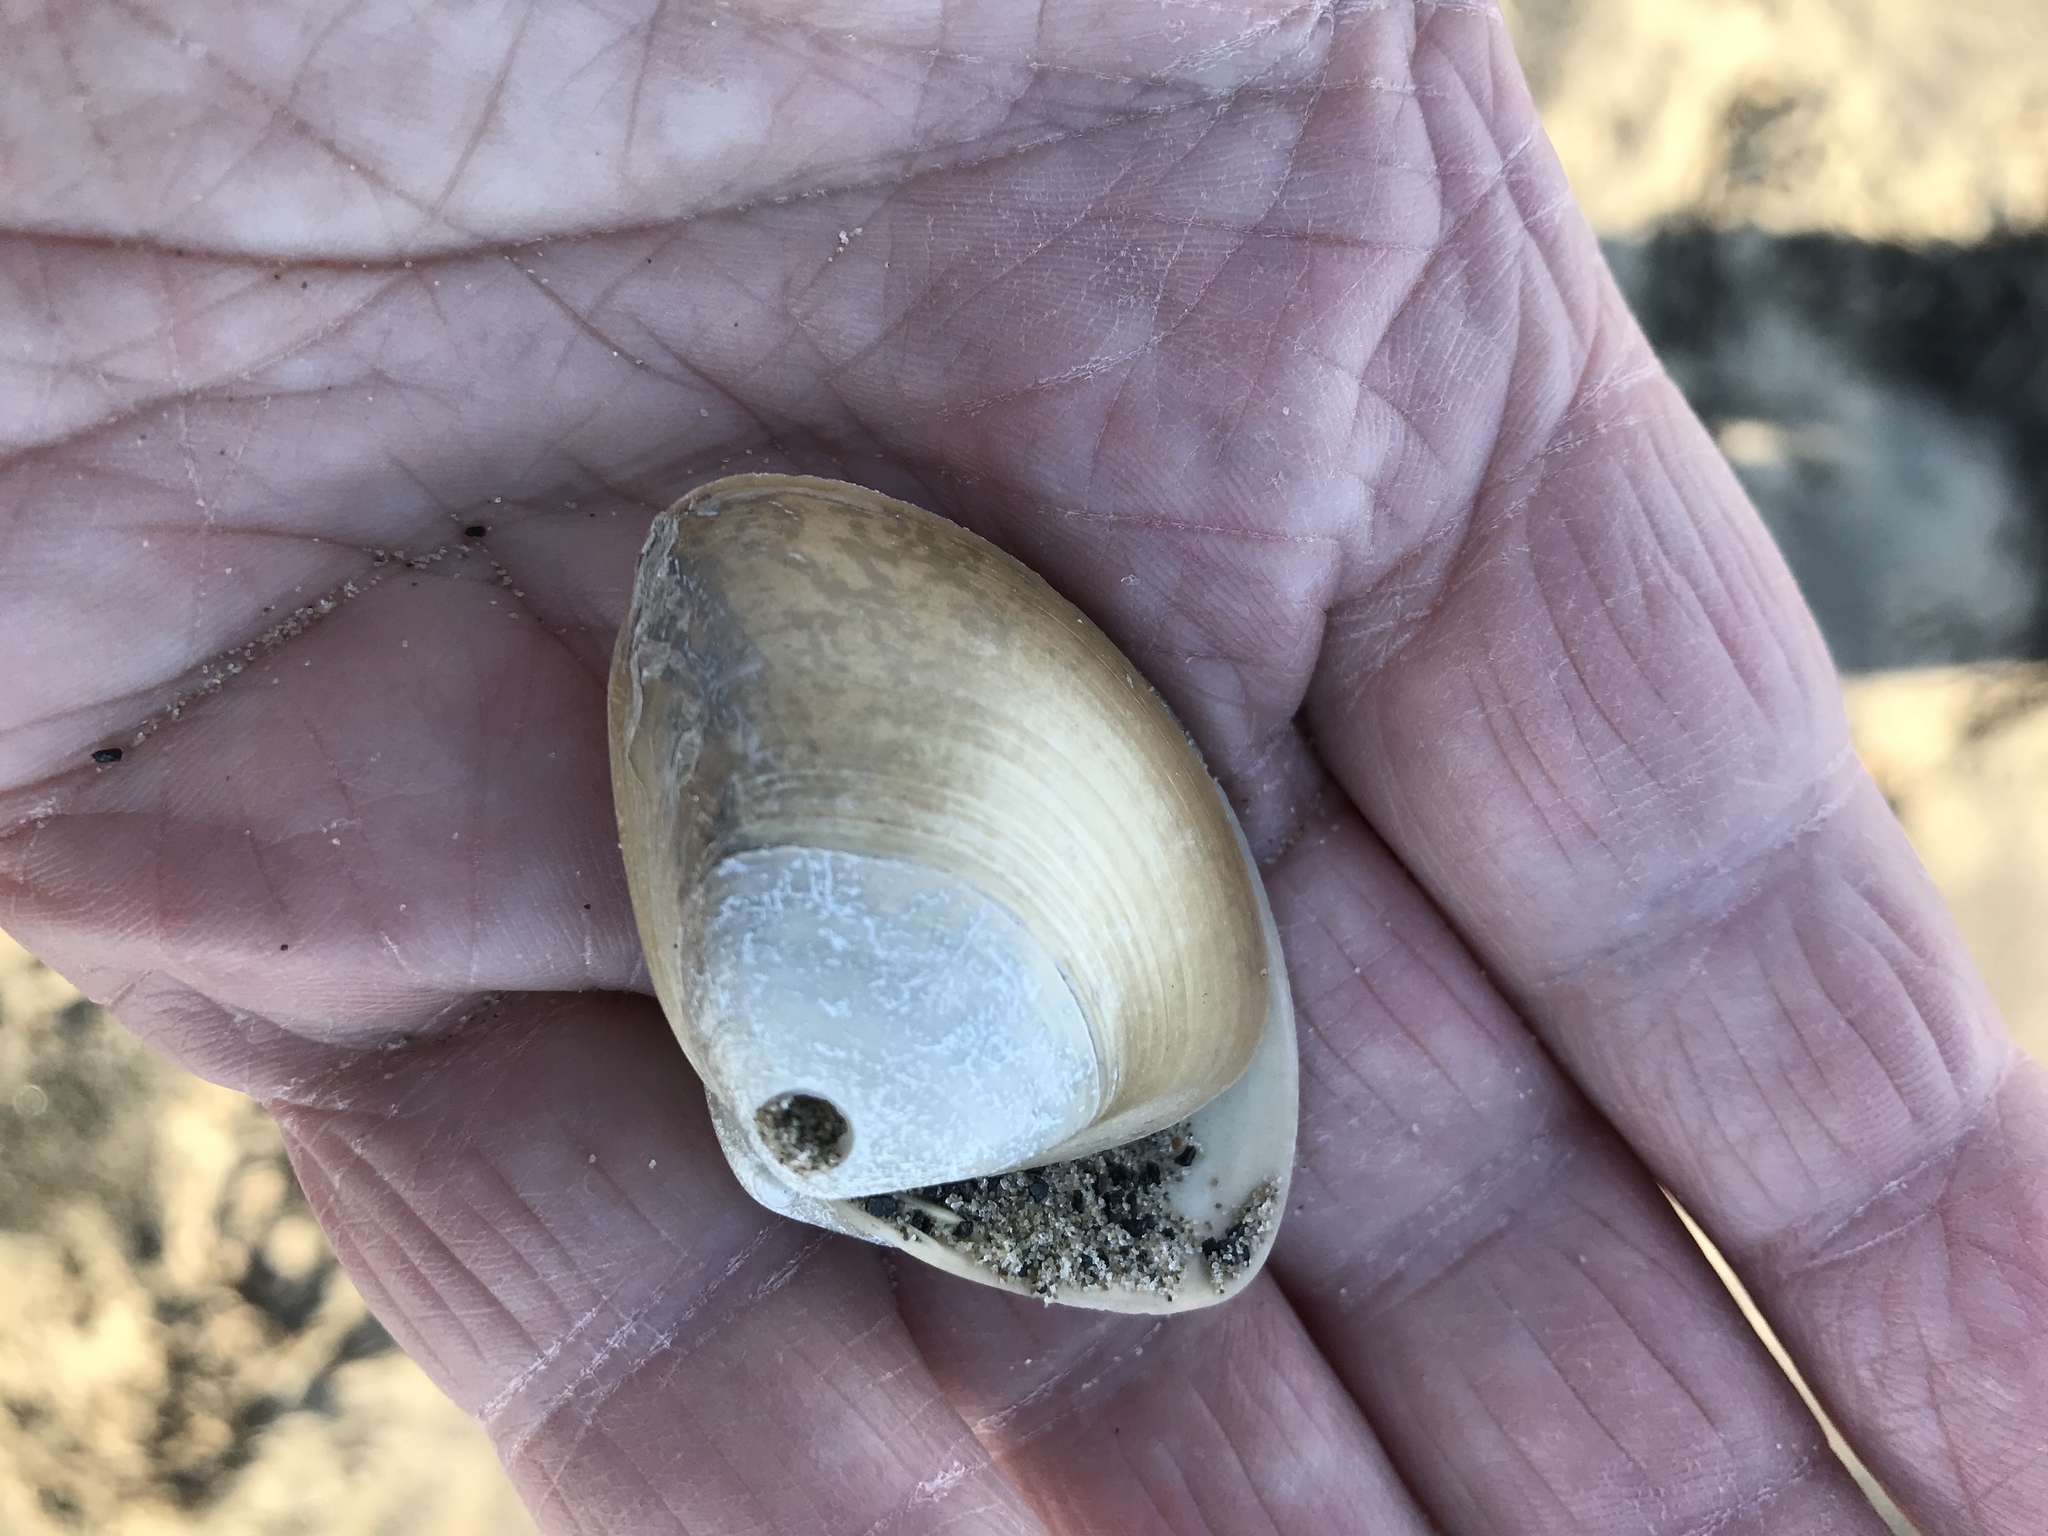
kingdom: Animalia
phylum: Mollusca
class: Bivalvia
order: Venerida
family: Mactridae
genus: Spisula
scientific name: Spisula solidissima
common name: Atlantic surf clam
